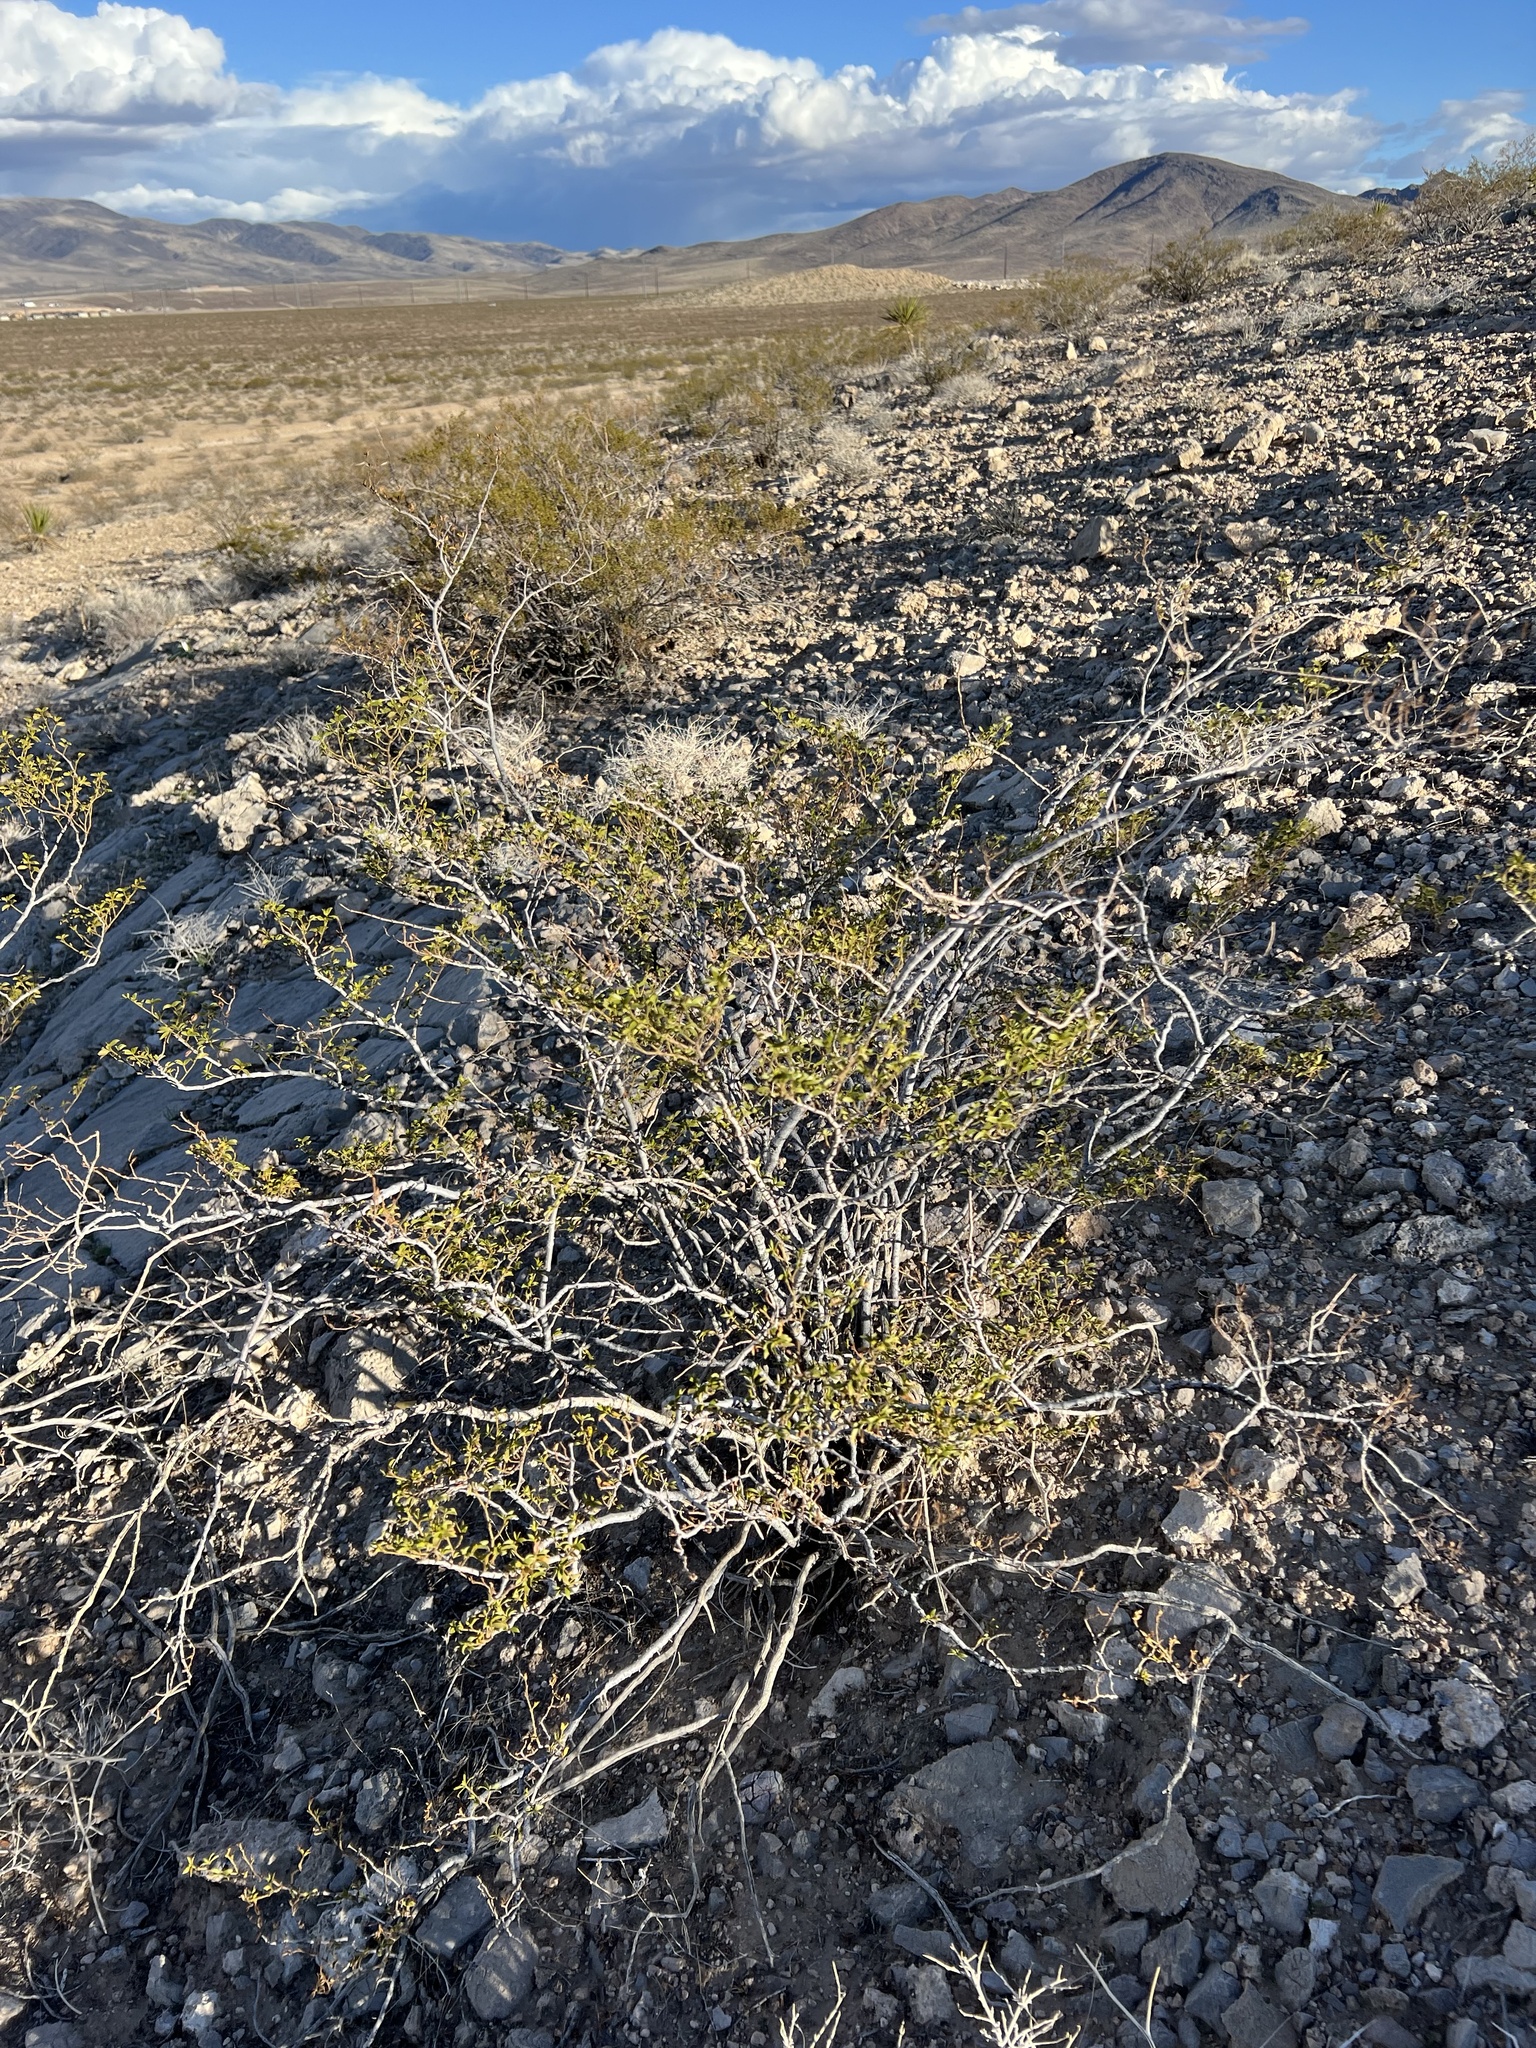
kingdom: Plantae
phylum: Tracheophyta
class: Magnoliopsida
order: Zygophyllales
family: Zygophyllaceae
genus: Larrea
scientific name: Larrea tridentata
